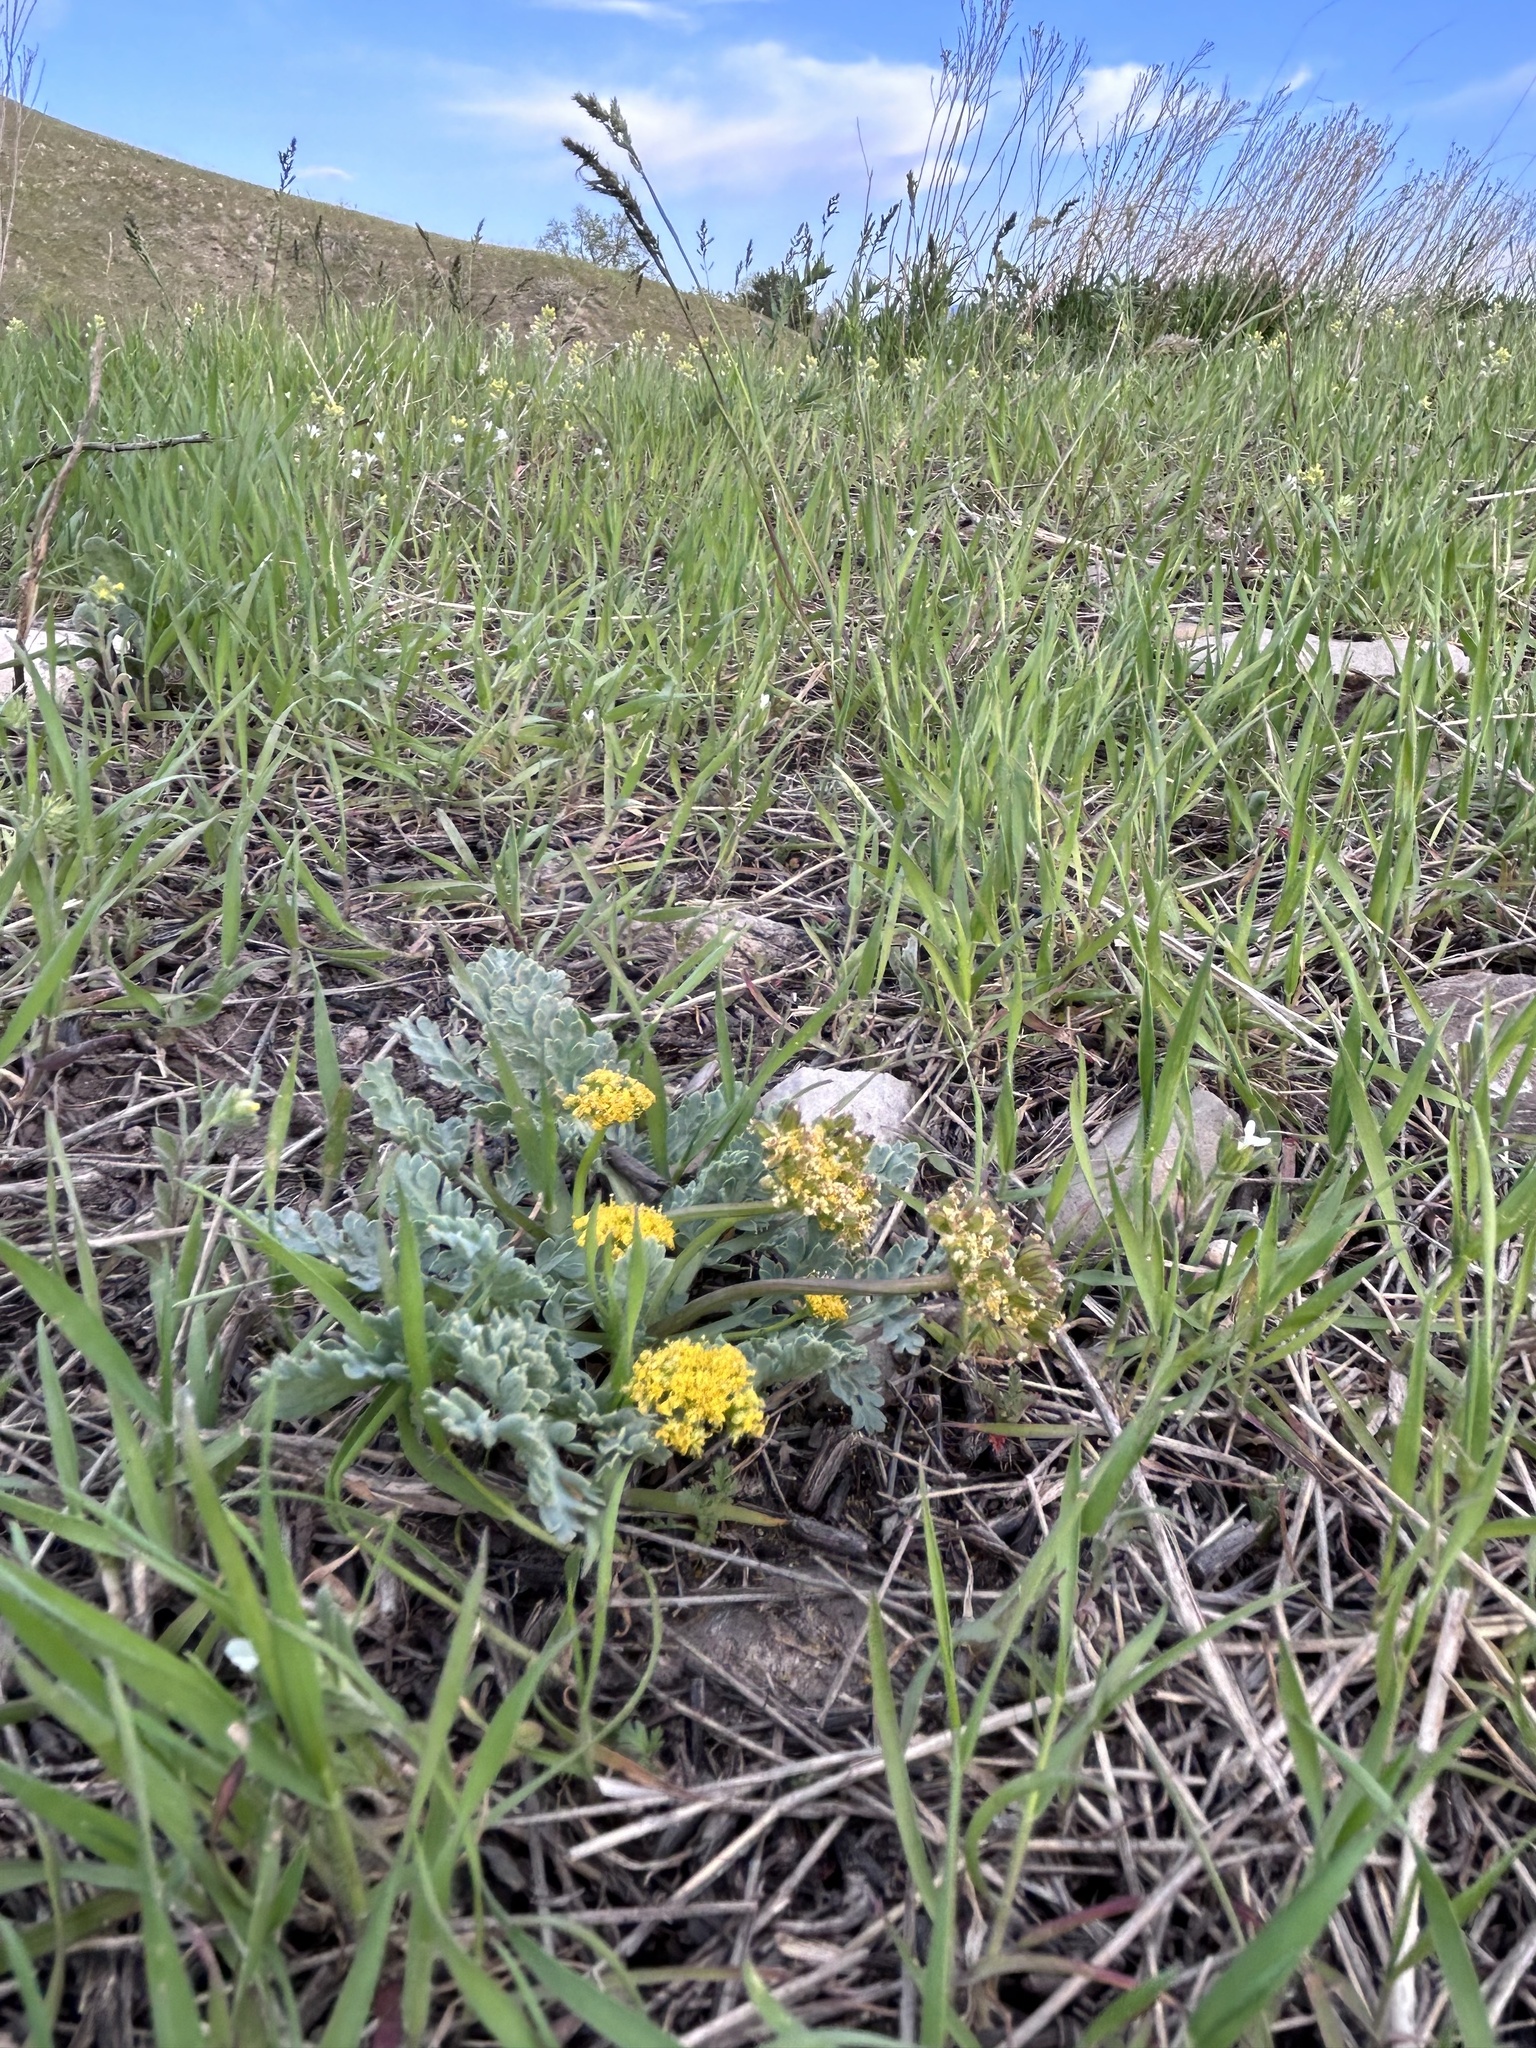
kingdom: Plantae
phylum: Tracheophyta
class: Magnoliopsida
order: Apiales
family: Apiaceae
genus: Aulospermum
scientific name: Aulospermum longipes
